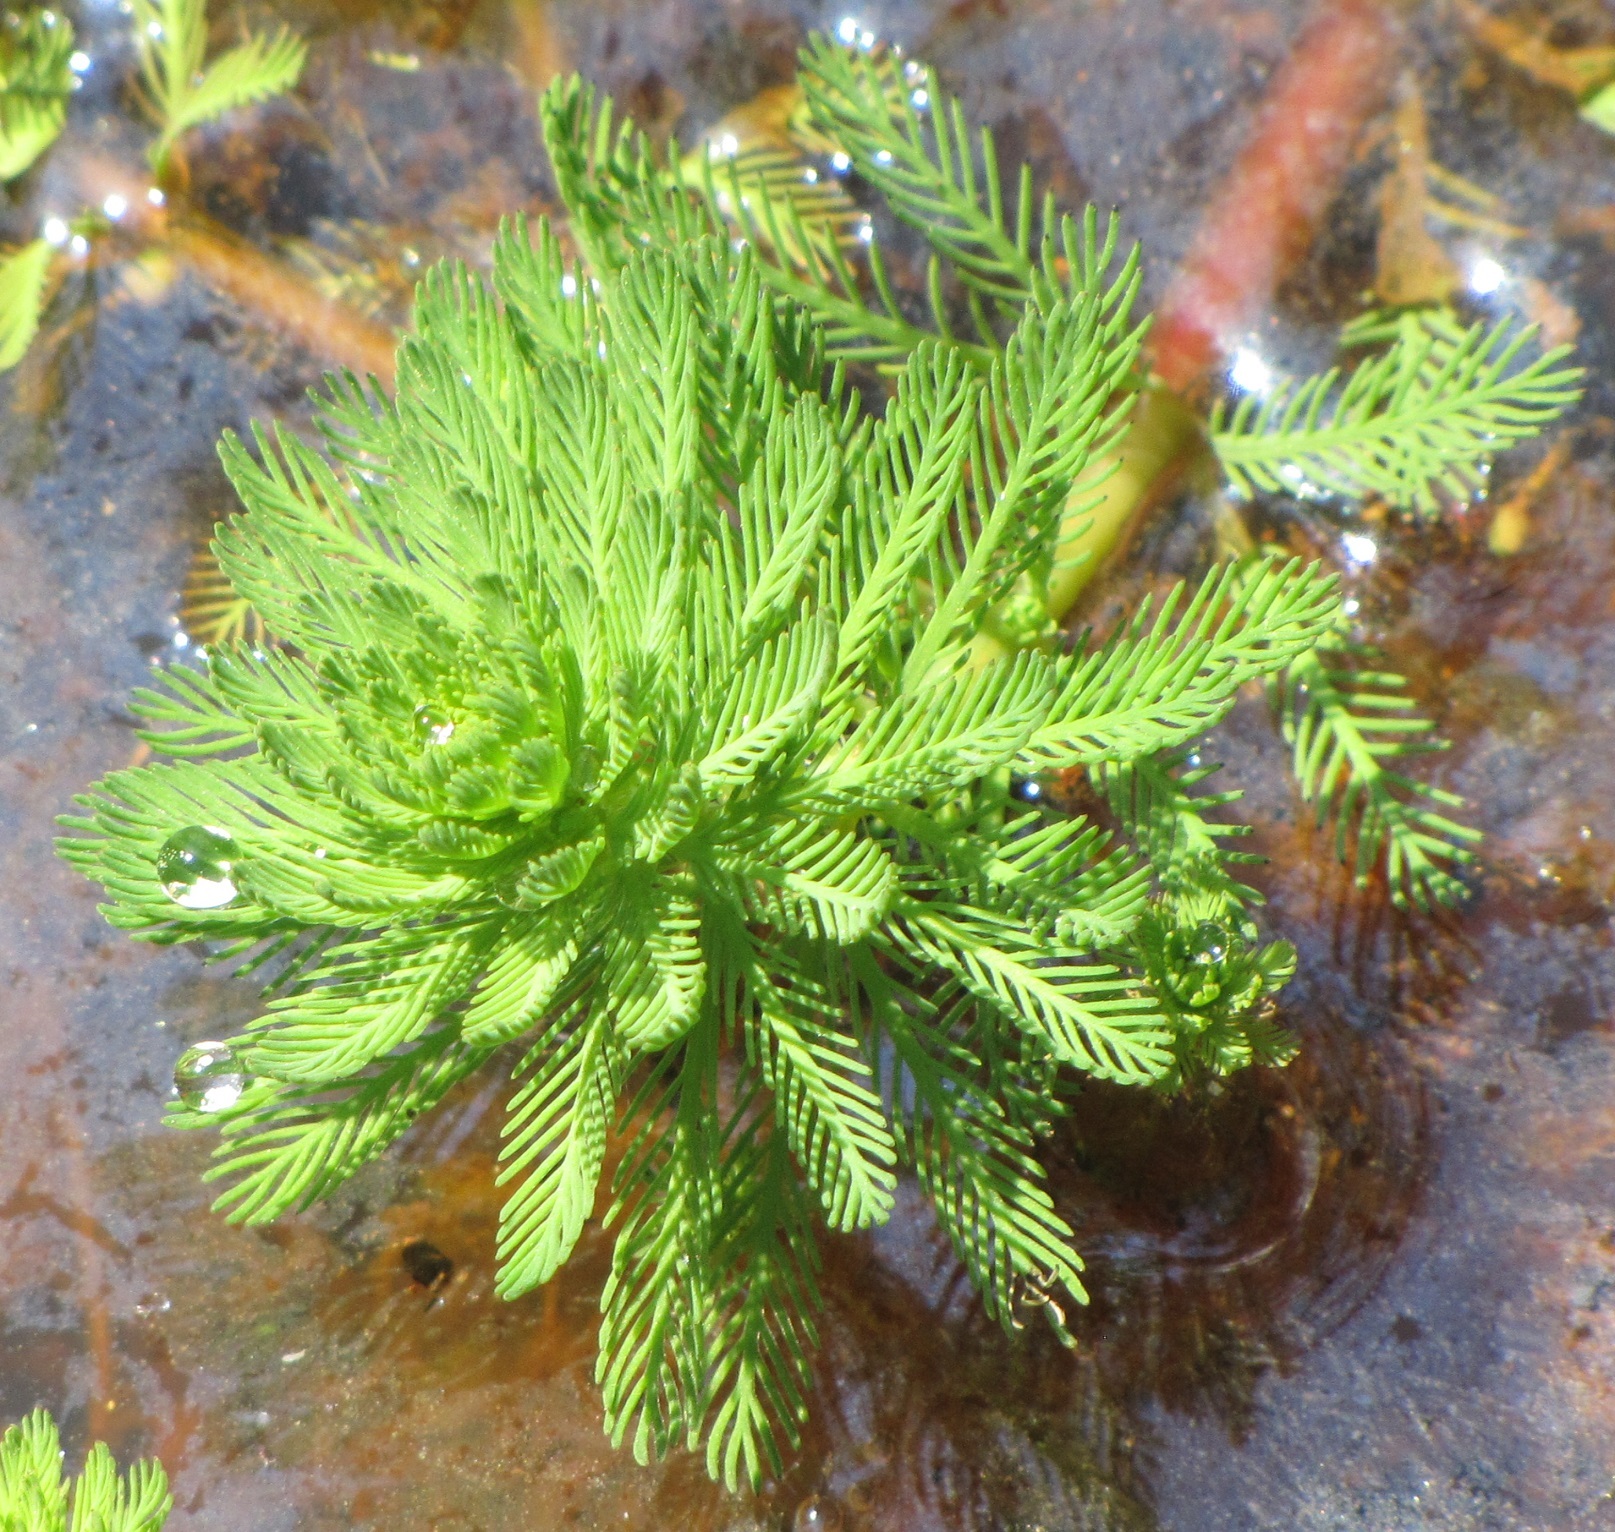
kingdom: Plantae
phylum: Tracheophyta
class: Magnoliopsida
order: Saxifragales
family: Haloragaceae
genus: Myriophyllum
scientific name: Myriophyllum aquaticum
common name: Parrot's feather
